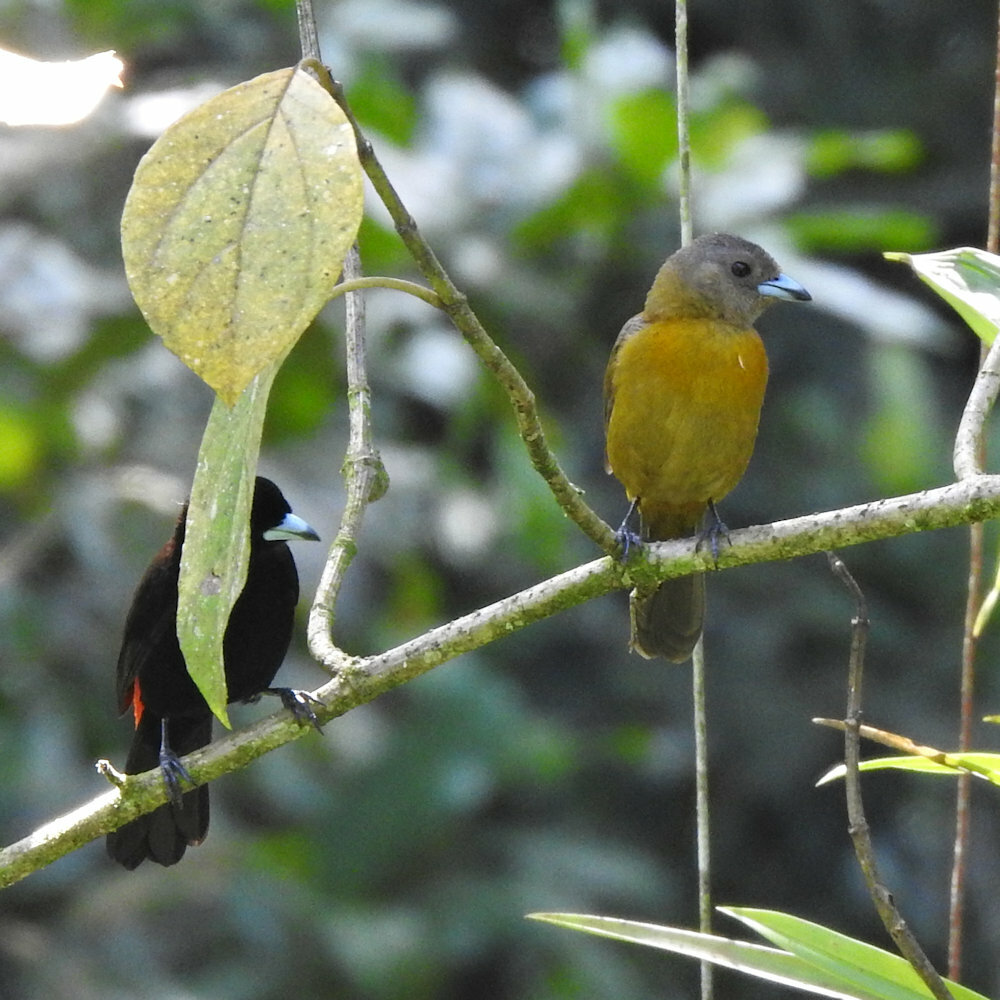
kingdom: Animalia
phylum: Chordata
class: Aves
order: Passeriformes
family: Thraupidae
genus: Ramphocelus
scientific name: Ramphocelus passerinii
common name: Passerini's tanager
